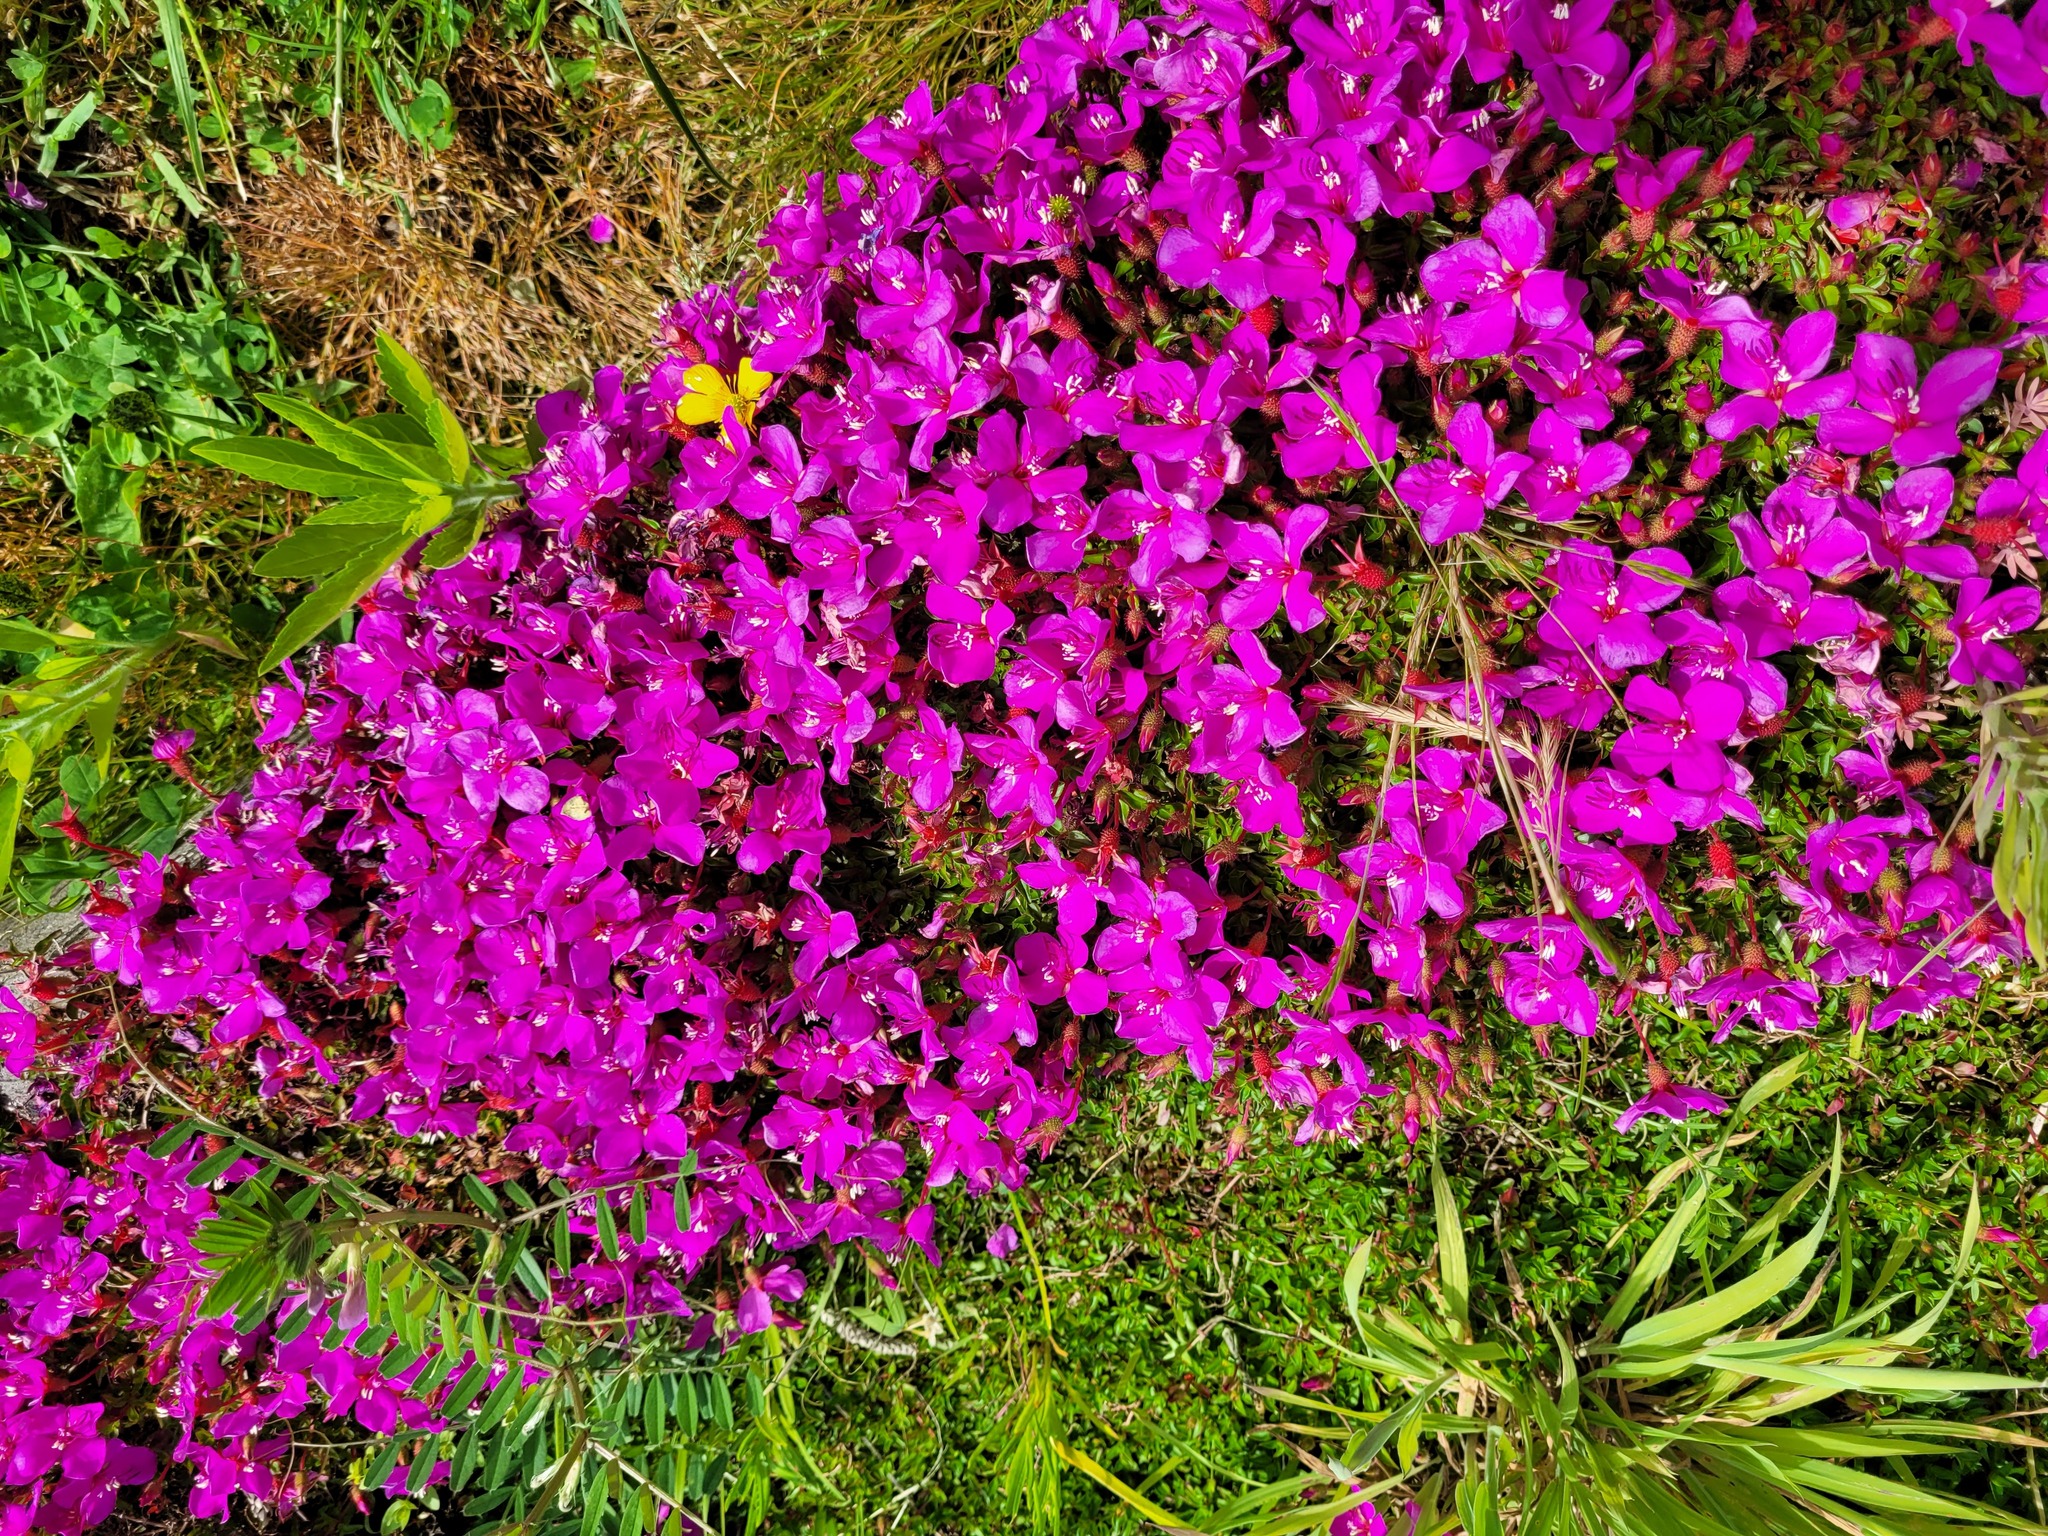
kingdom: Plantae
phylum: Tracheophyta
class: Magnoliopsida
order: Myrtales
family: Melastomataceae
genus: Heterocentron
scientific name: Heterocentron elegans
